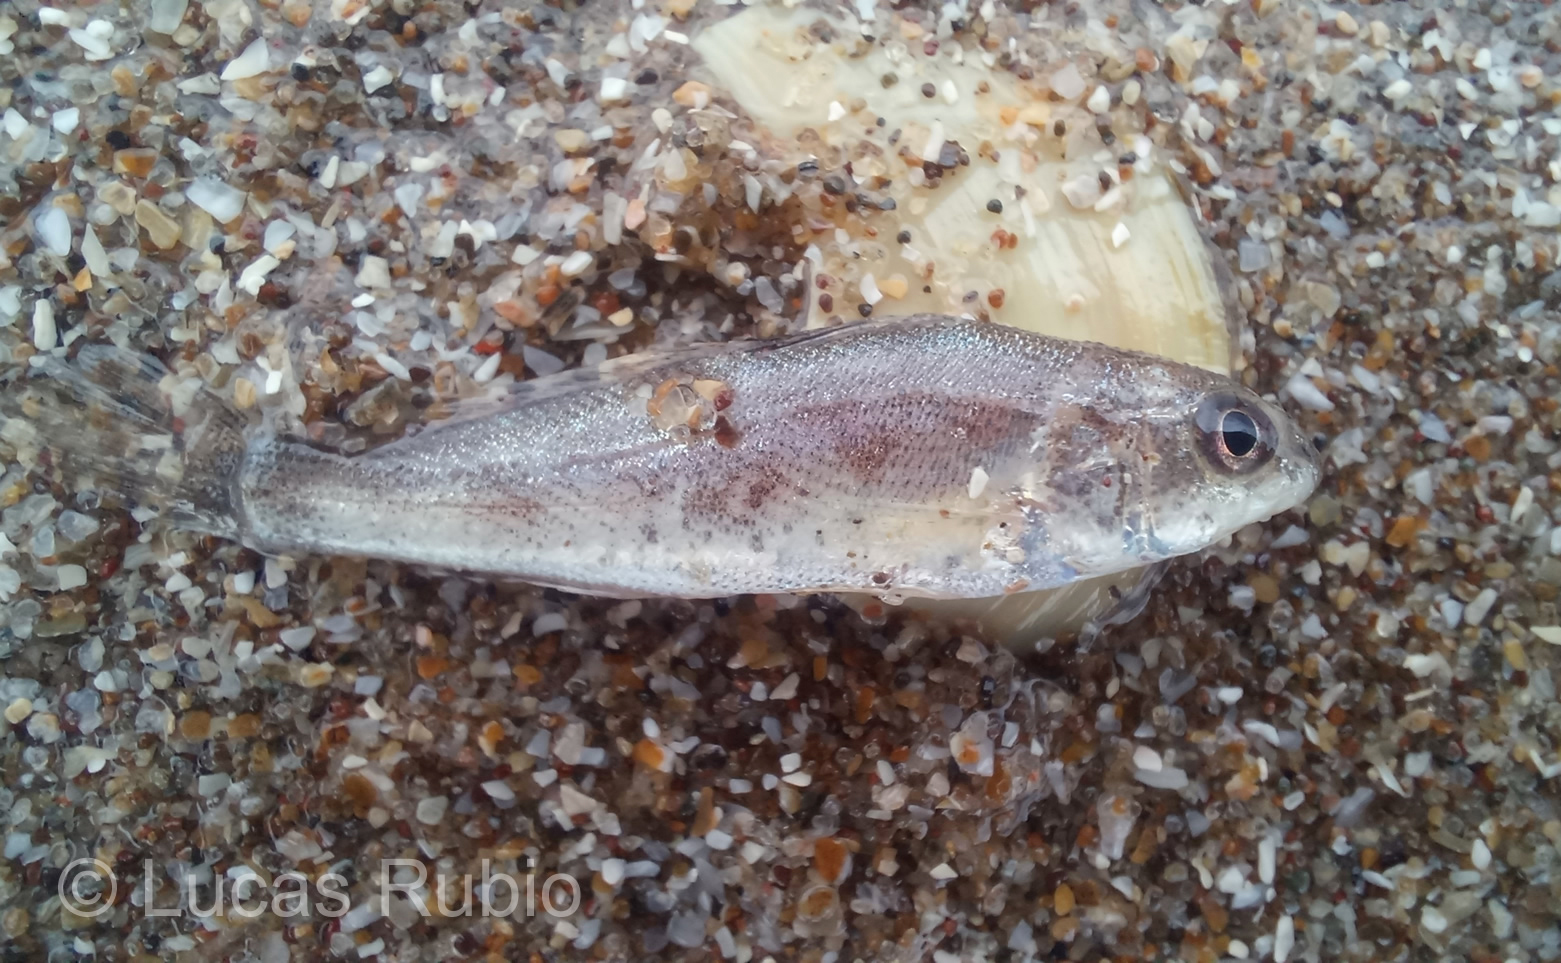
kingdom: Animalia
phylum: Chordata
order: Perciformes
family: Sciaenidae
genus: Menticirrhus
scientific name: Menticirrhus americanus
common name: Southern kingfish
